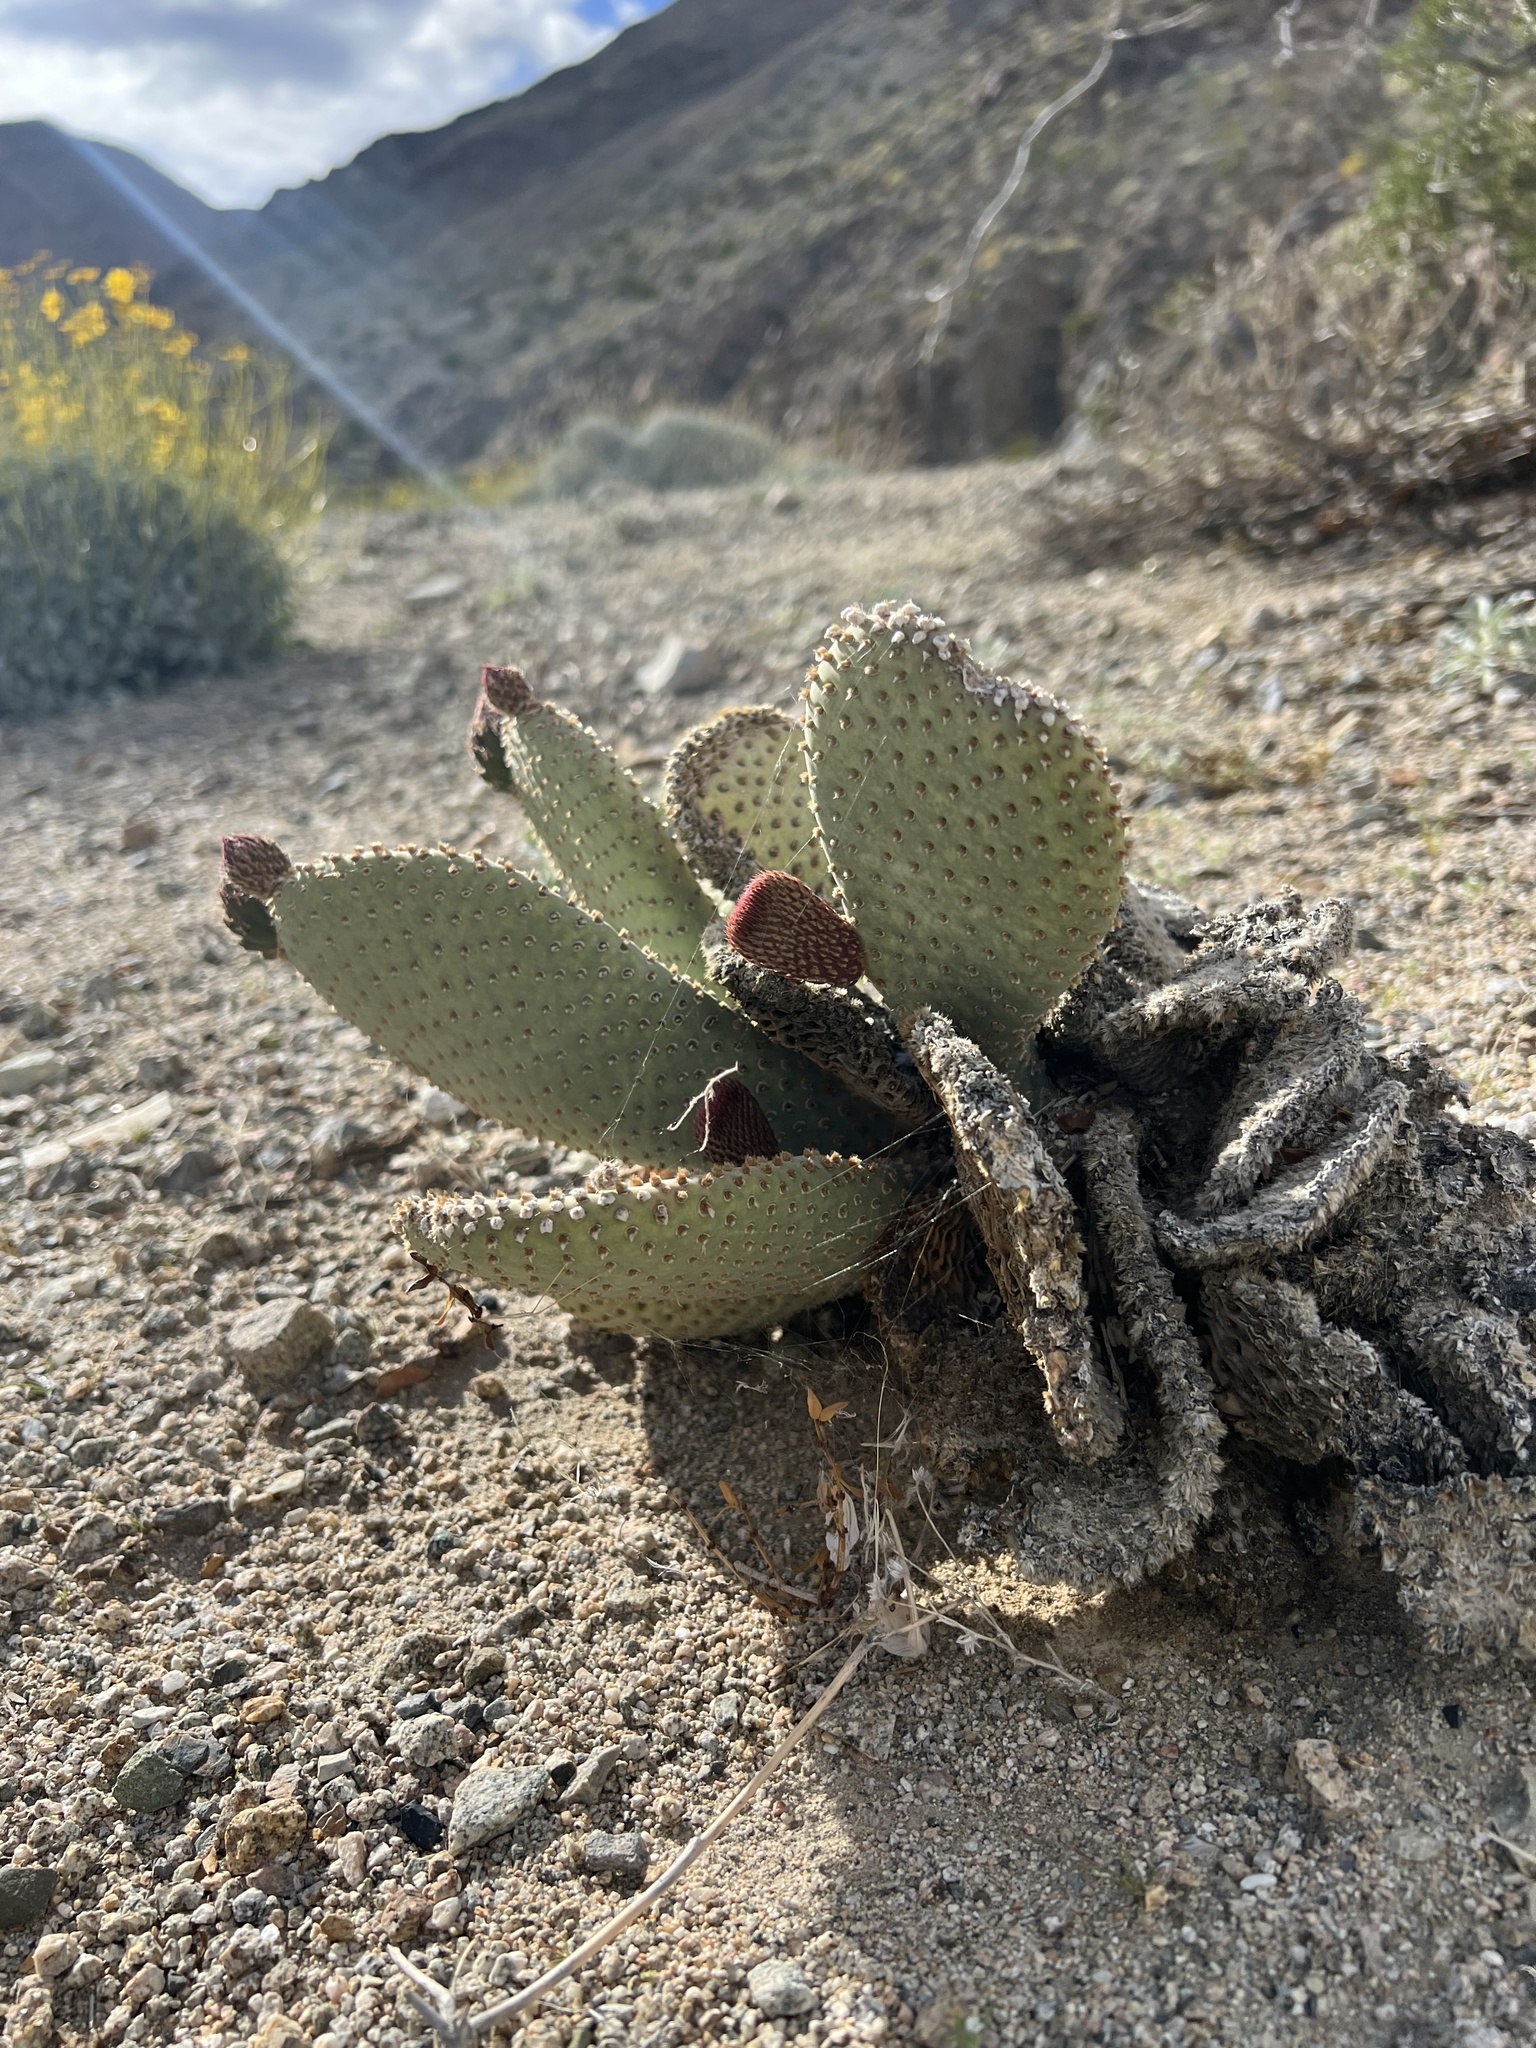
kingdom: Plantae
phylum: Tracheophyta
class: Magnoliopsida
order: Caryophyllales
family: Cactaceae
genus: Opuntia
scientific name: Opuntia basilaris
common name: Beavertail prickly-pear
